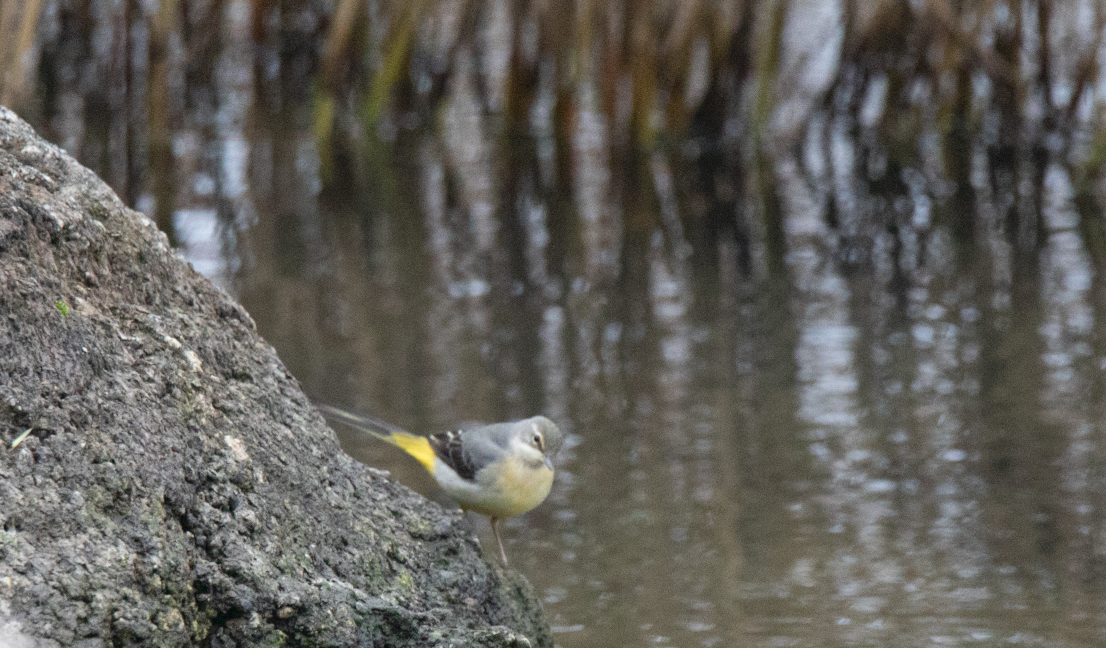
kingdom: Animalia
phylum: Chordata
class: Aves
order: Passeriformes
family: Motacillidae
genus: Motacilla
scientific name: Motacilla cinerea
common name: Grey wagtail
